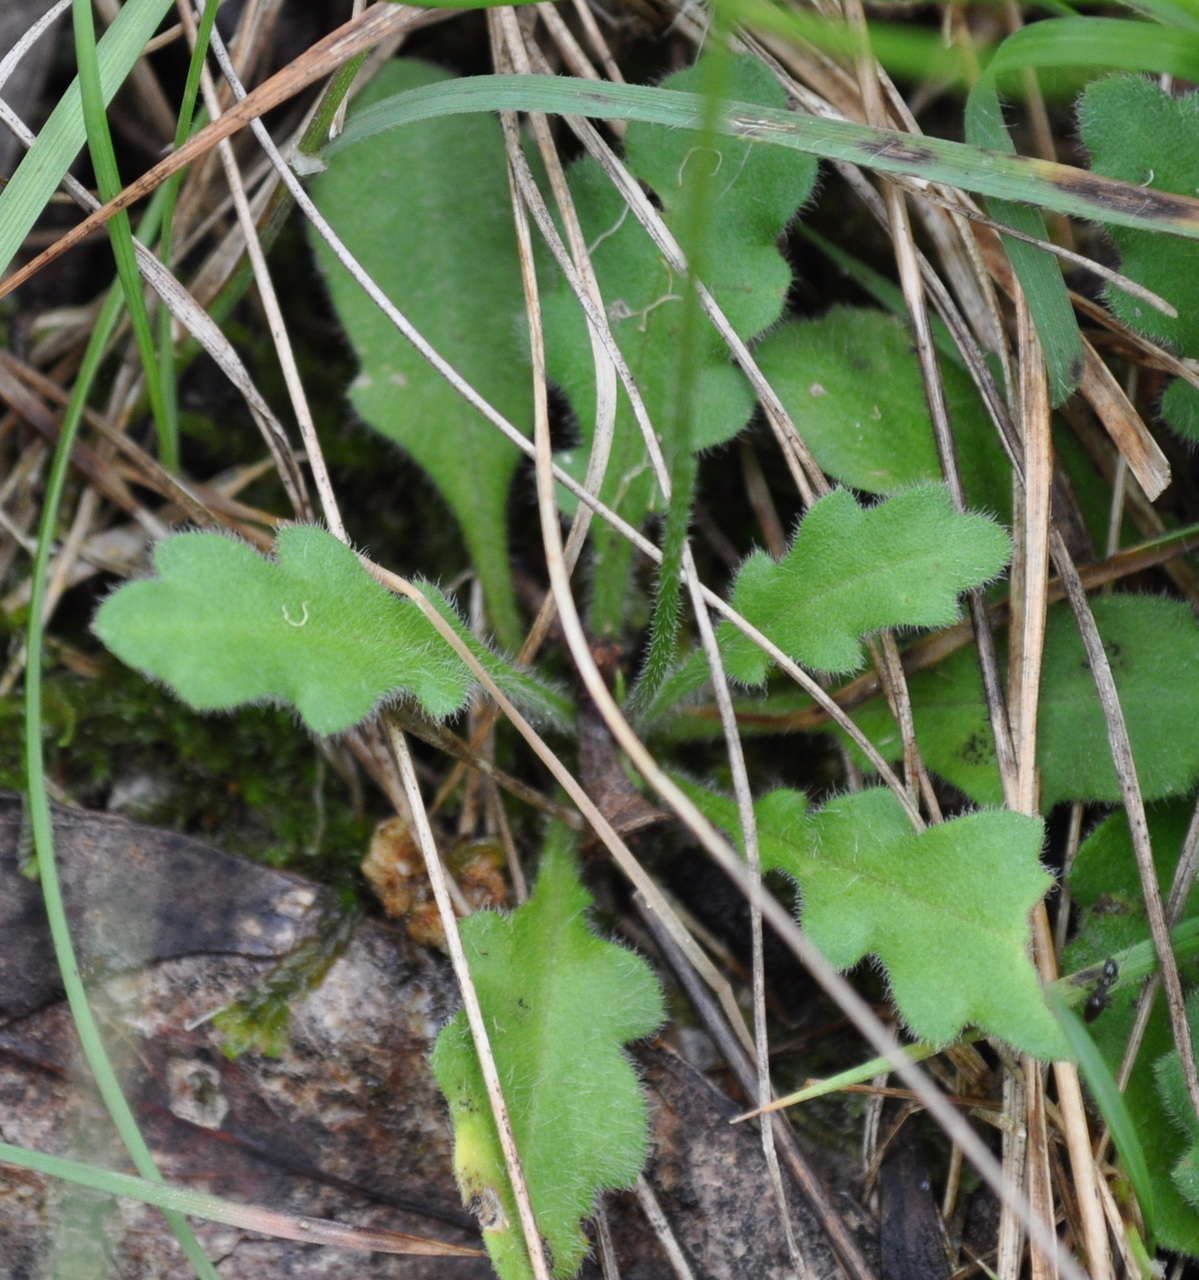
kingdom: Plantae
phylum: Tracheophyta
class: Magnoliopsida
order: Asterales
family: Asteraceae
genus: Lagenophora
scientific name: Lagenophora stipitata
